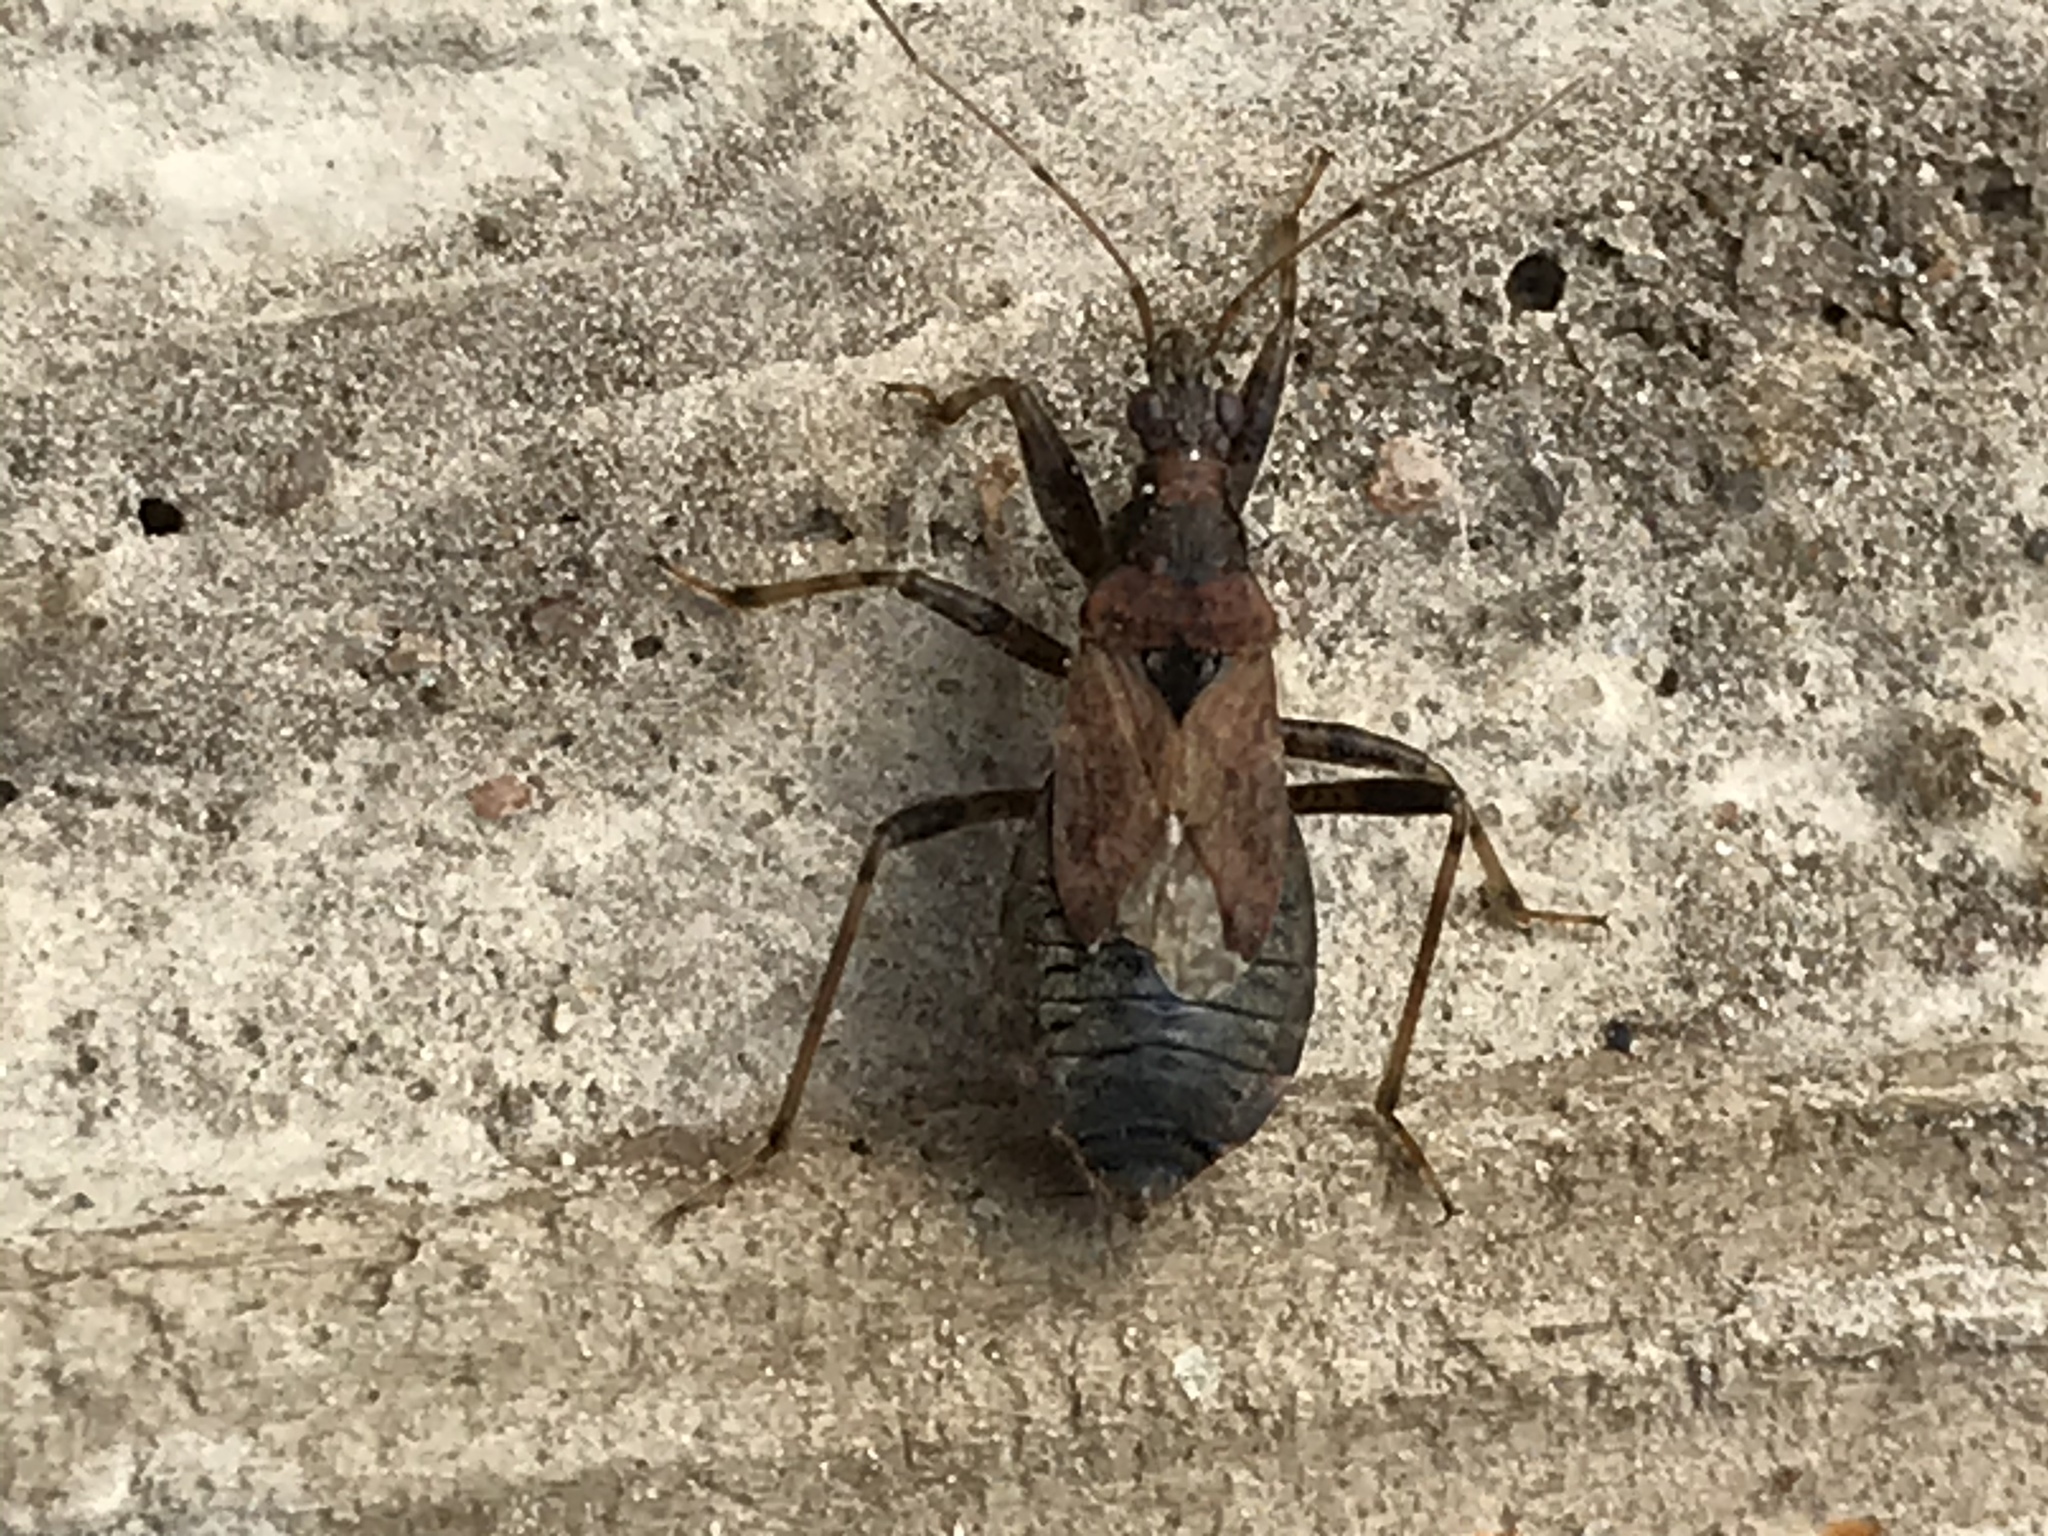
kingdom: Animalia
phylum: Arthropoda
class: Insecta
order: Hemiptera
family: Nabidae
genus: Himacerus
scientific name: Himacerus mirmicoides
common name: Ant damsel bug
